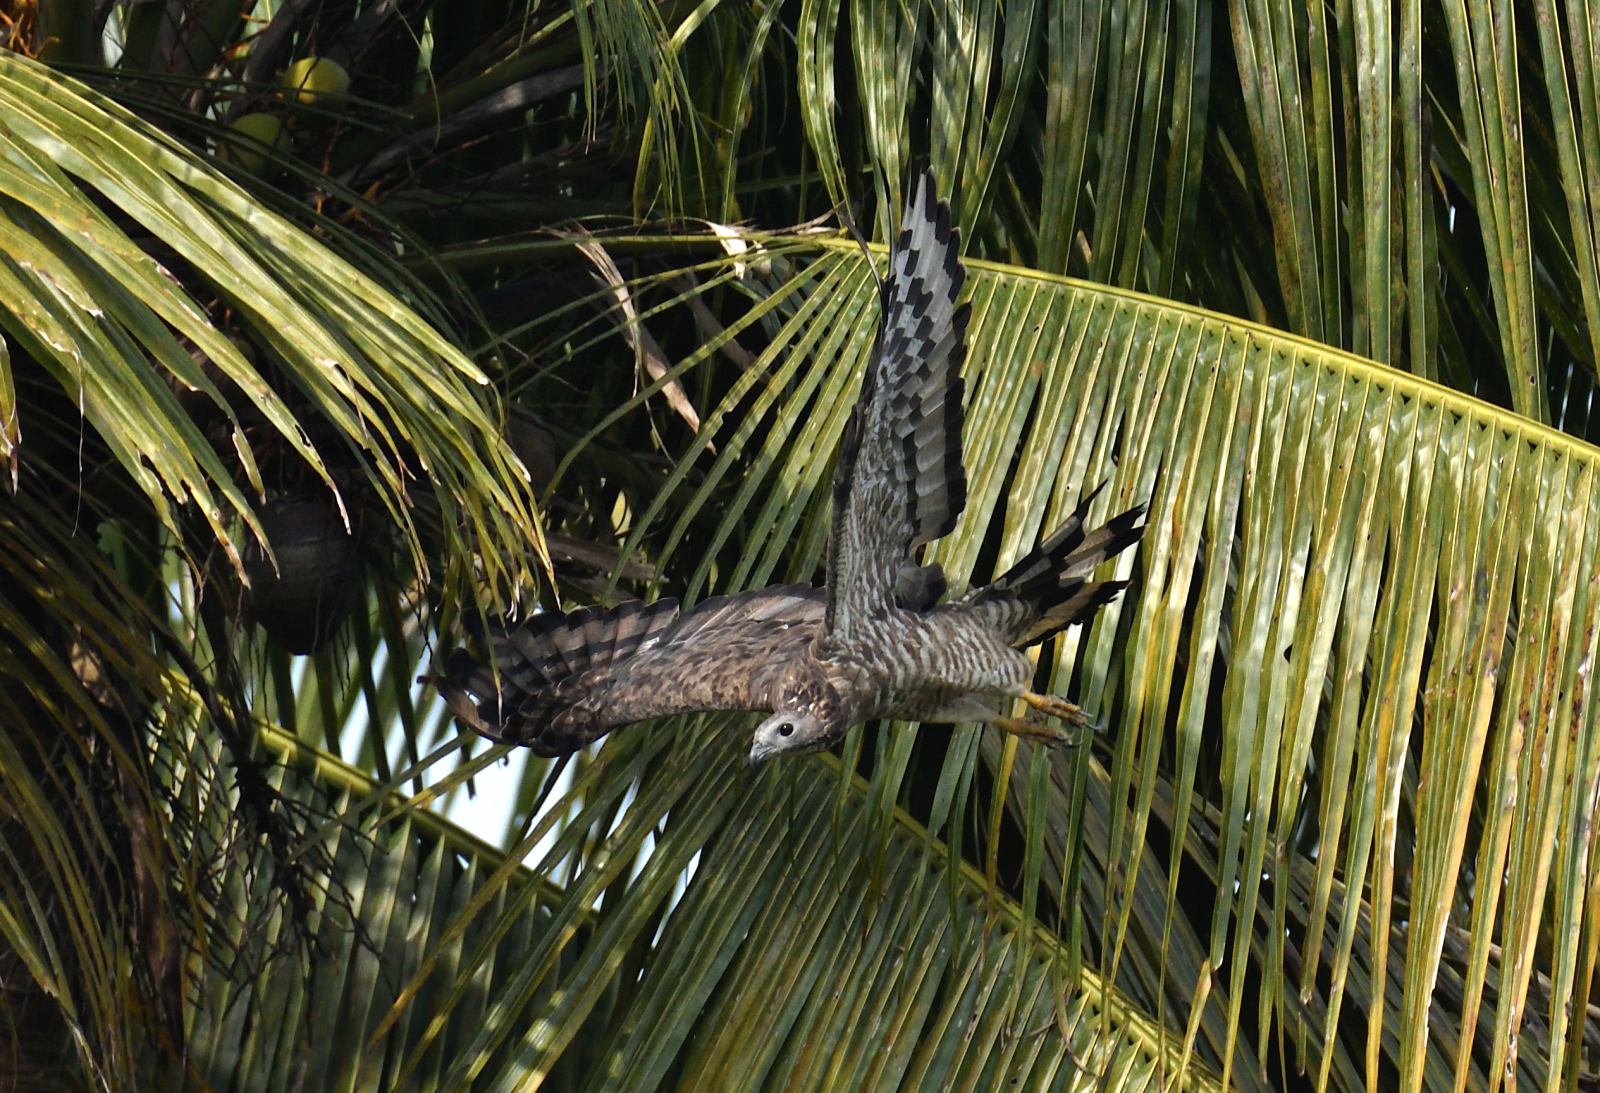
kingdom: Animalia
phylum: Chordata
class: Aves
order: Accipitriformes
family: Accipitridae
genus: Pernis
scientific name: Pernis ptilorhynchus
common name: Crested honey buzzard
